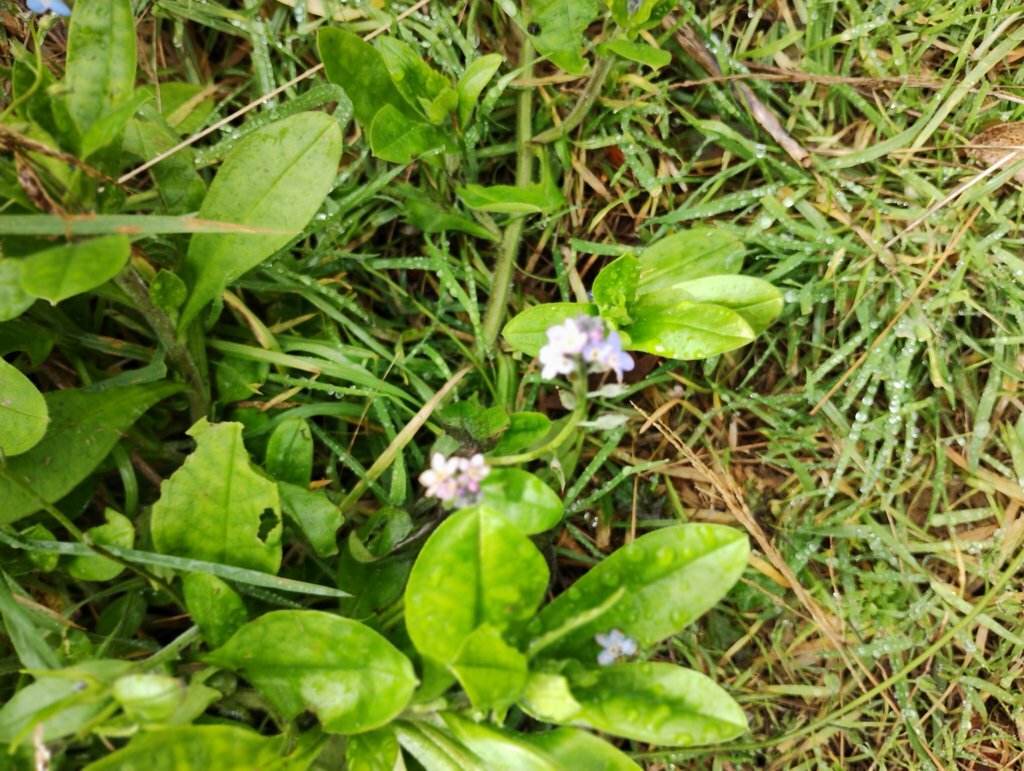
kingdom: Plantae
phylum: Tracheophyta
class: Magnoliopsida
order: Boraginales
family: Boraginaceae
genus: Myosotis
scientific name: Myosotis sylvatica
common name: Wood forget-me-not
